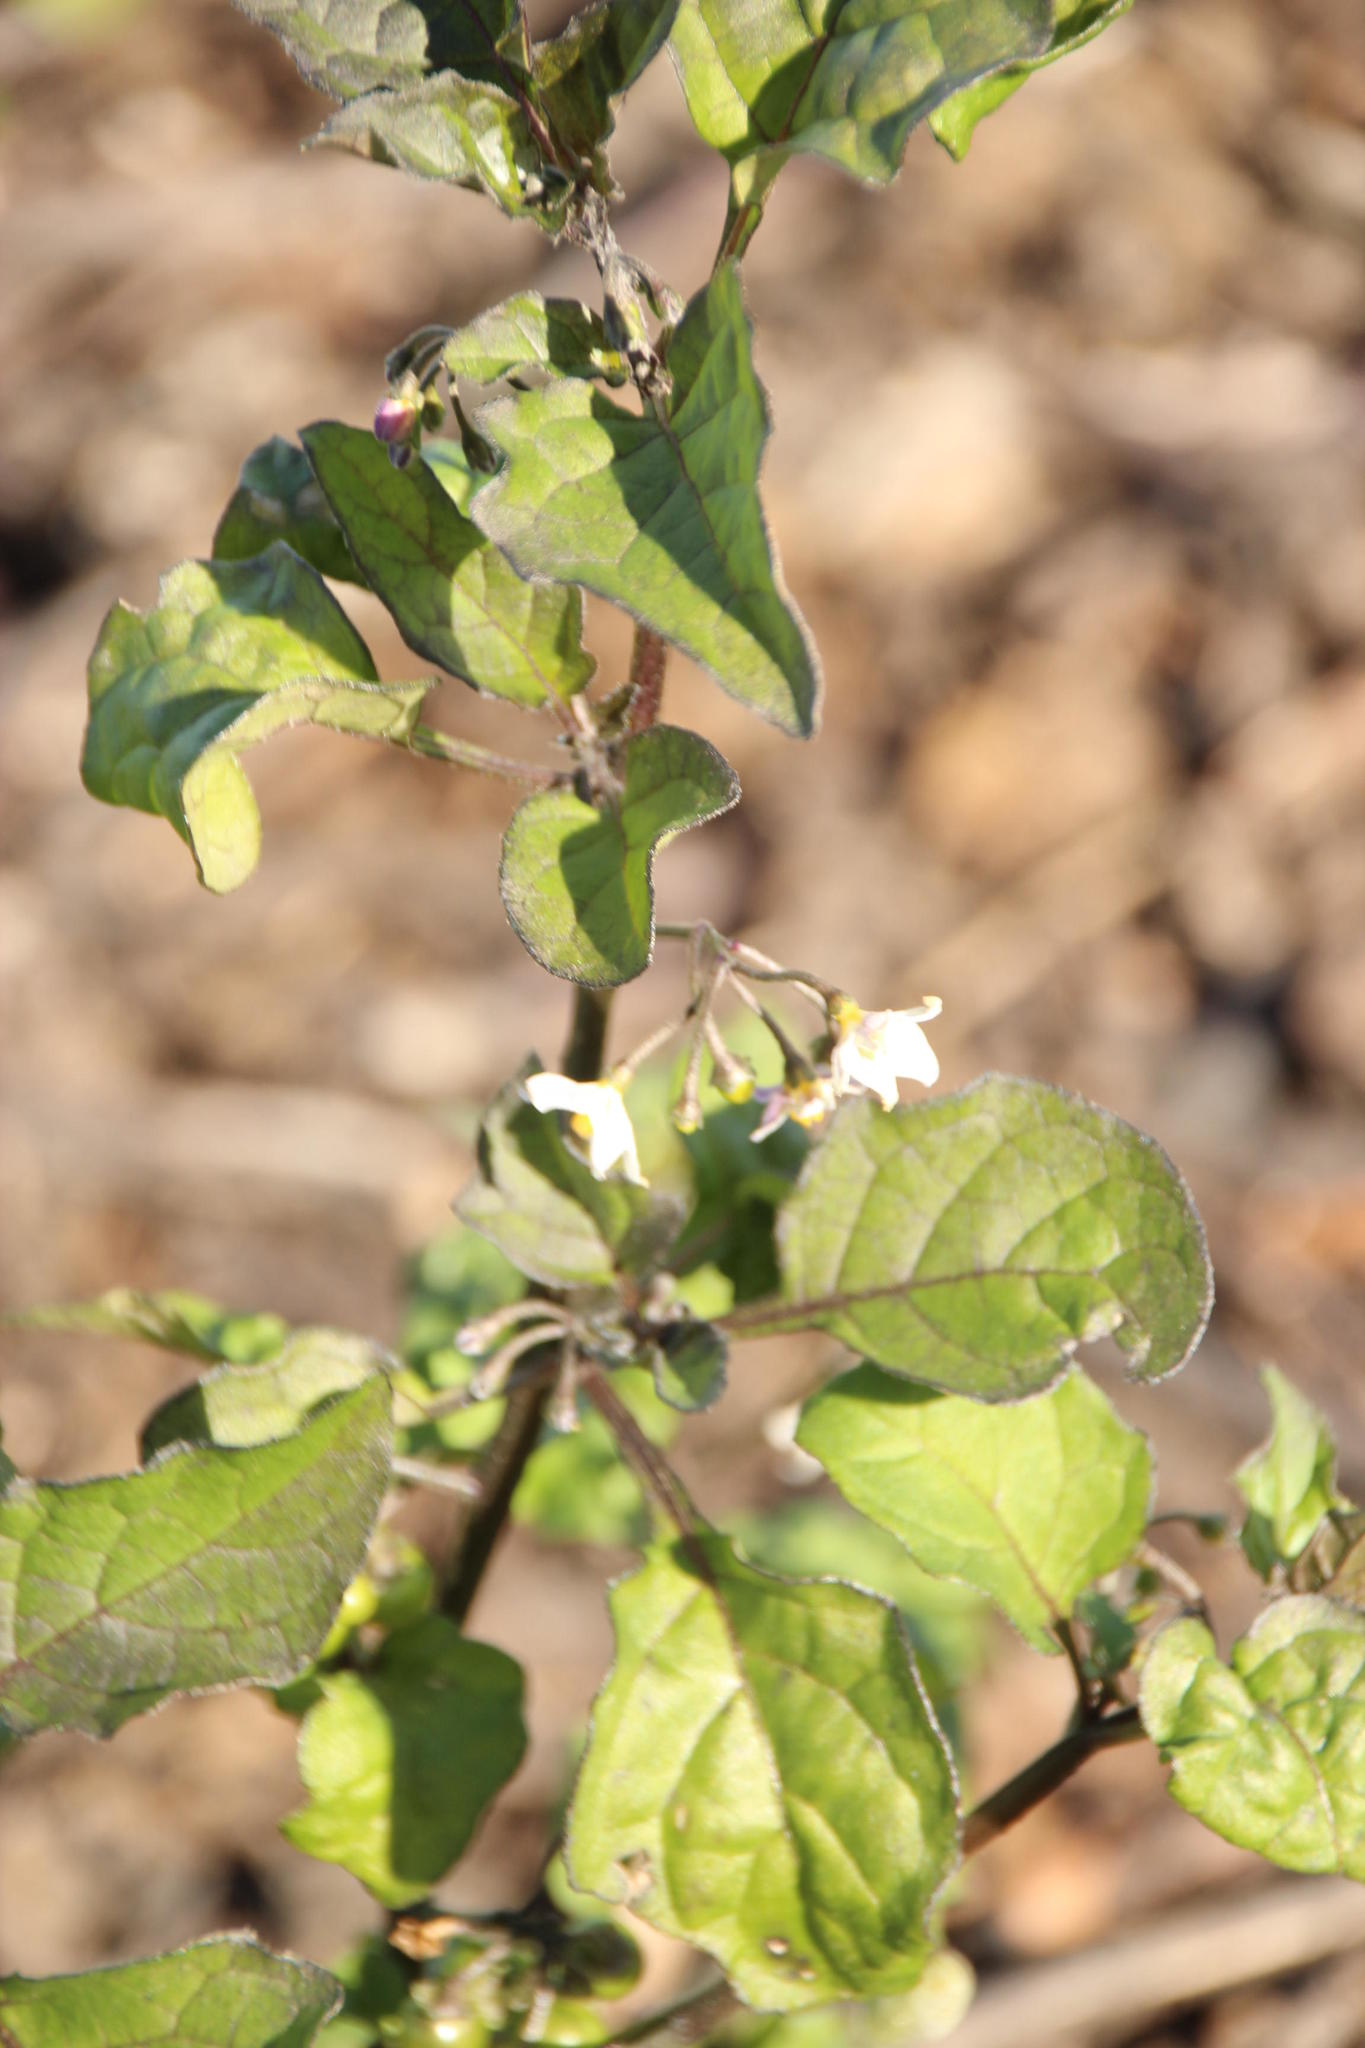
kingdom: Plantae
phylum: Tracheophyta
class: Magnoliopsida
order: Solanales
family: Solanaceae
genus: Solanum
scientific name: Solanum nigrum
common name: Black nightshade
